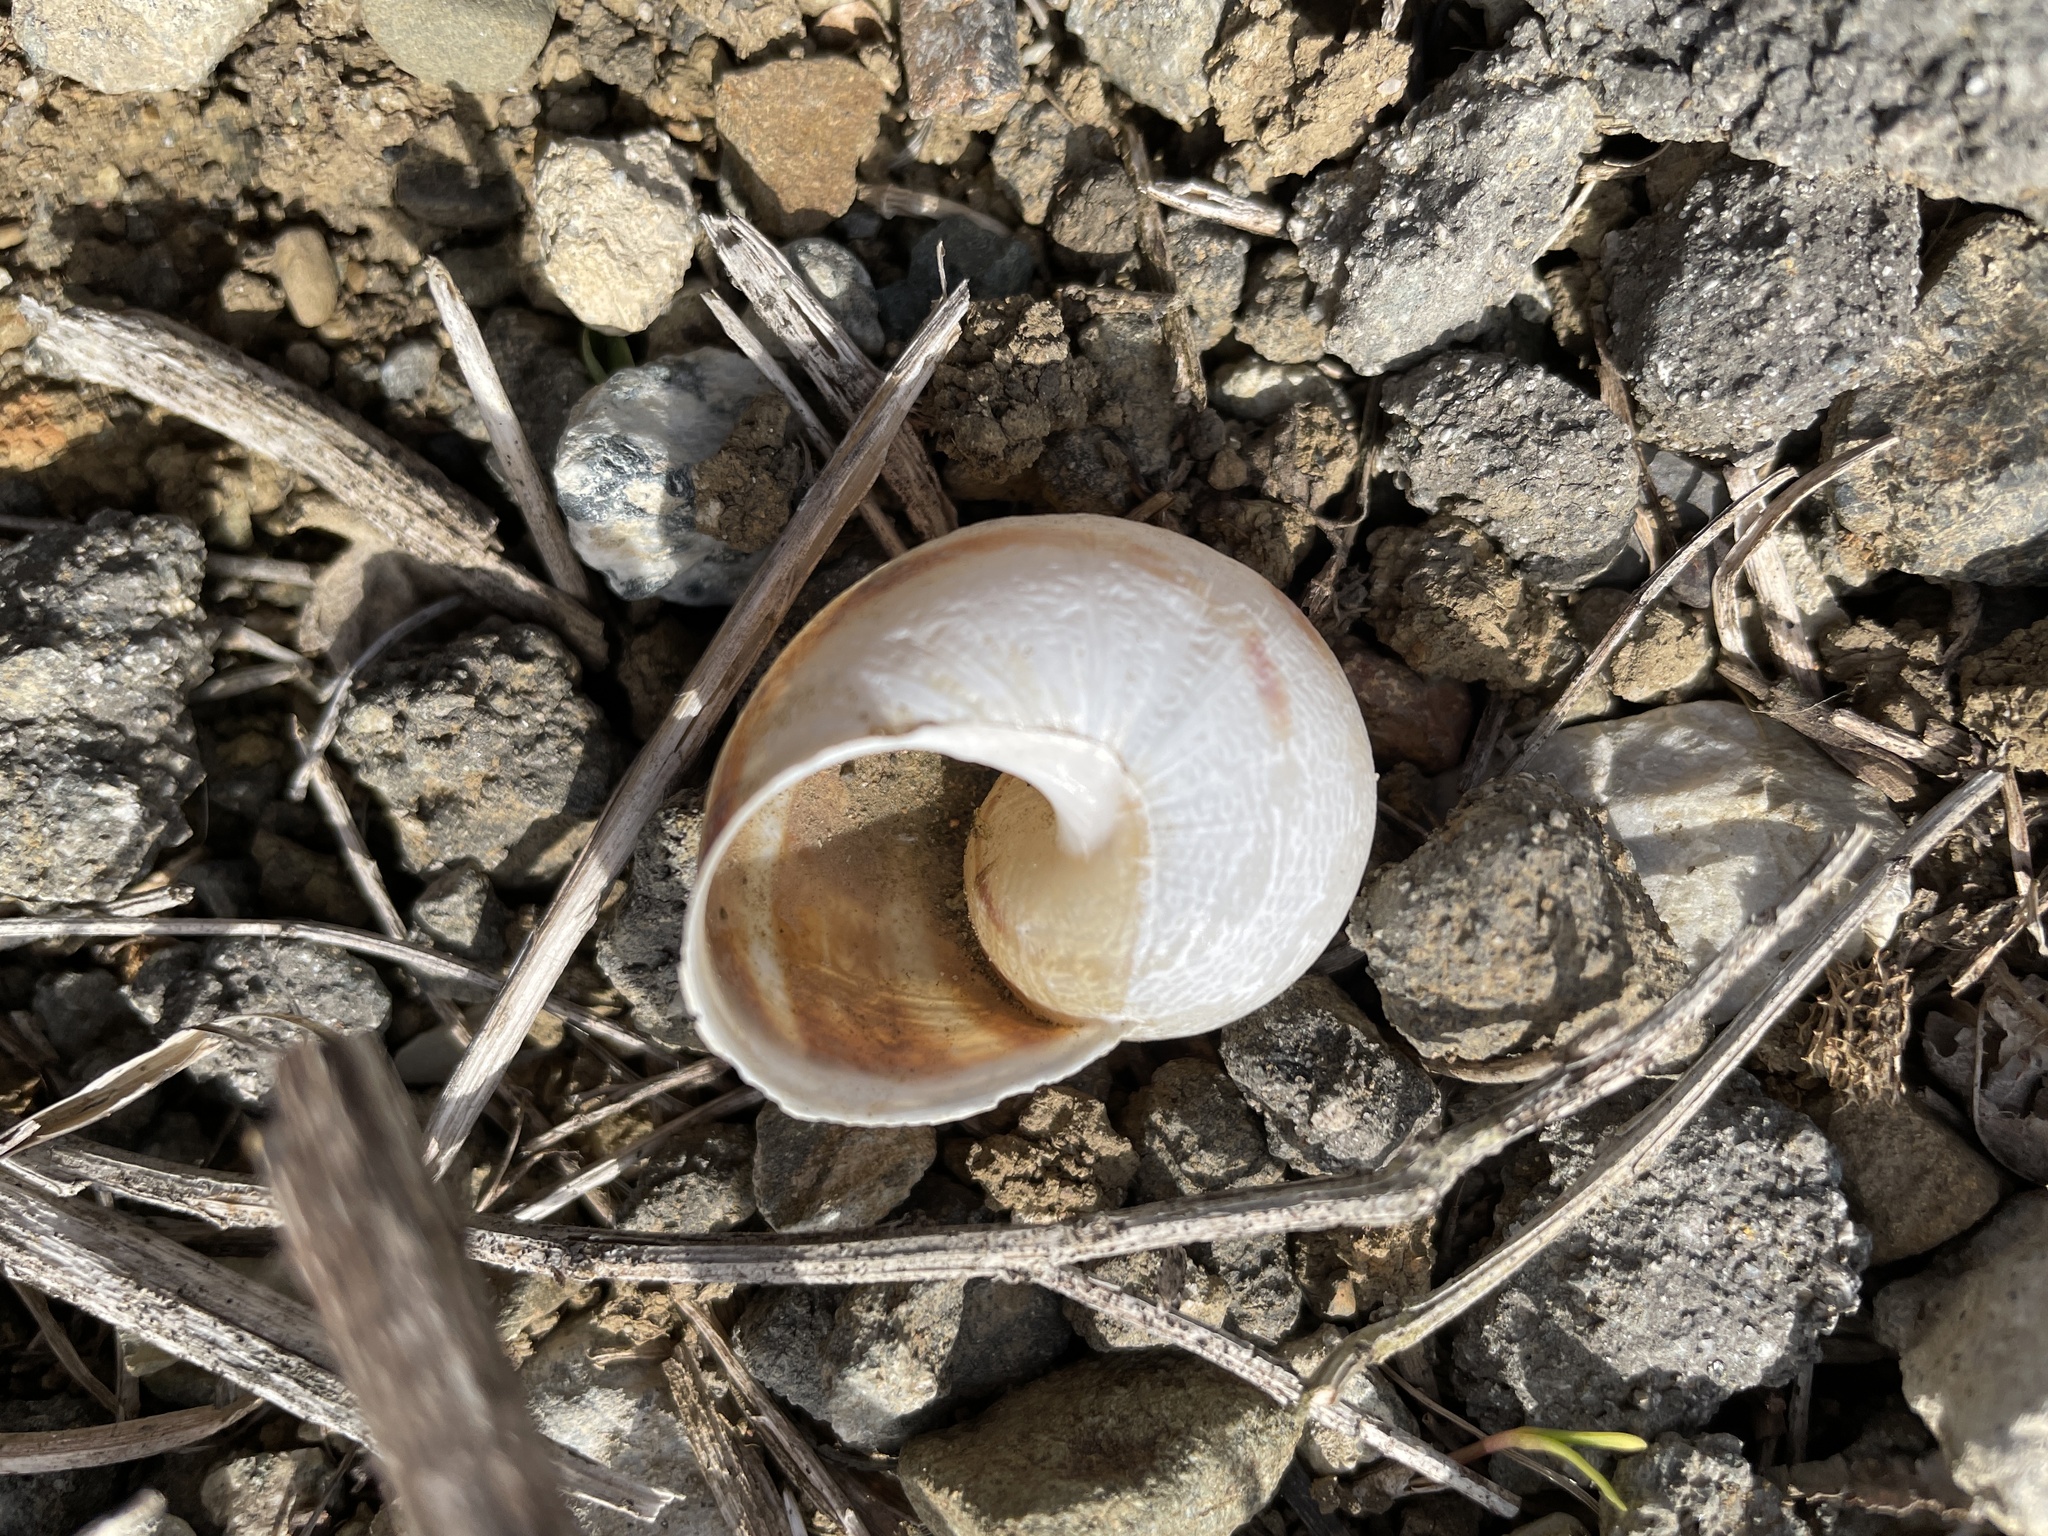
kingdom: Animalia
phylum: Mollusca
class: Gastropoda
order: Stylommatophora
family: Helicidae
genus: Cornu
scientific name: Cornu aspersum
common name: Brown garden snail
